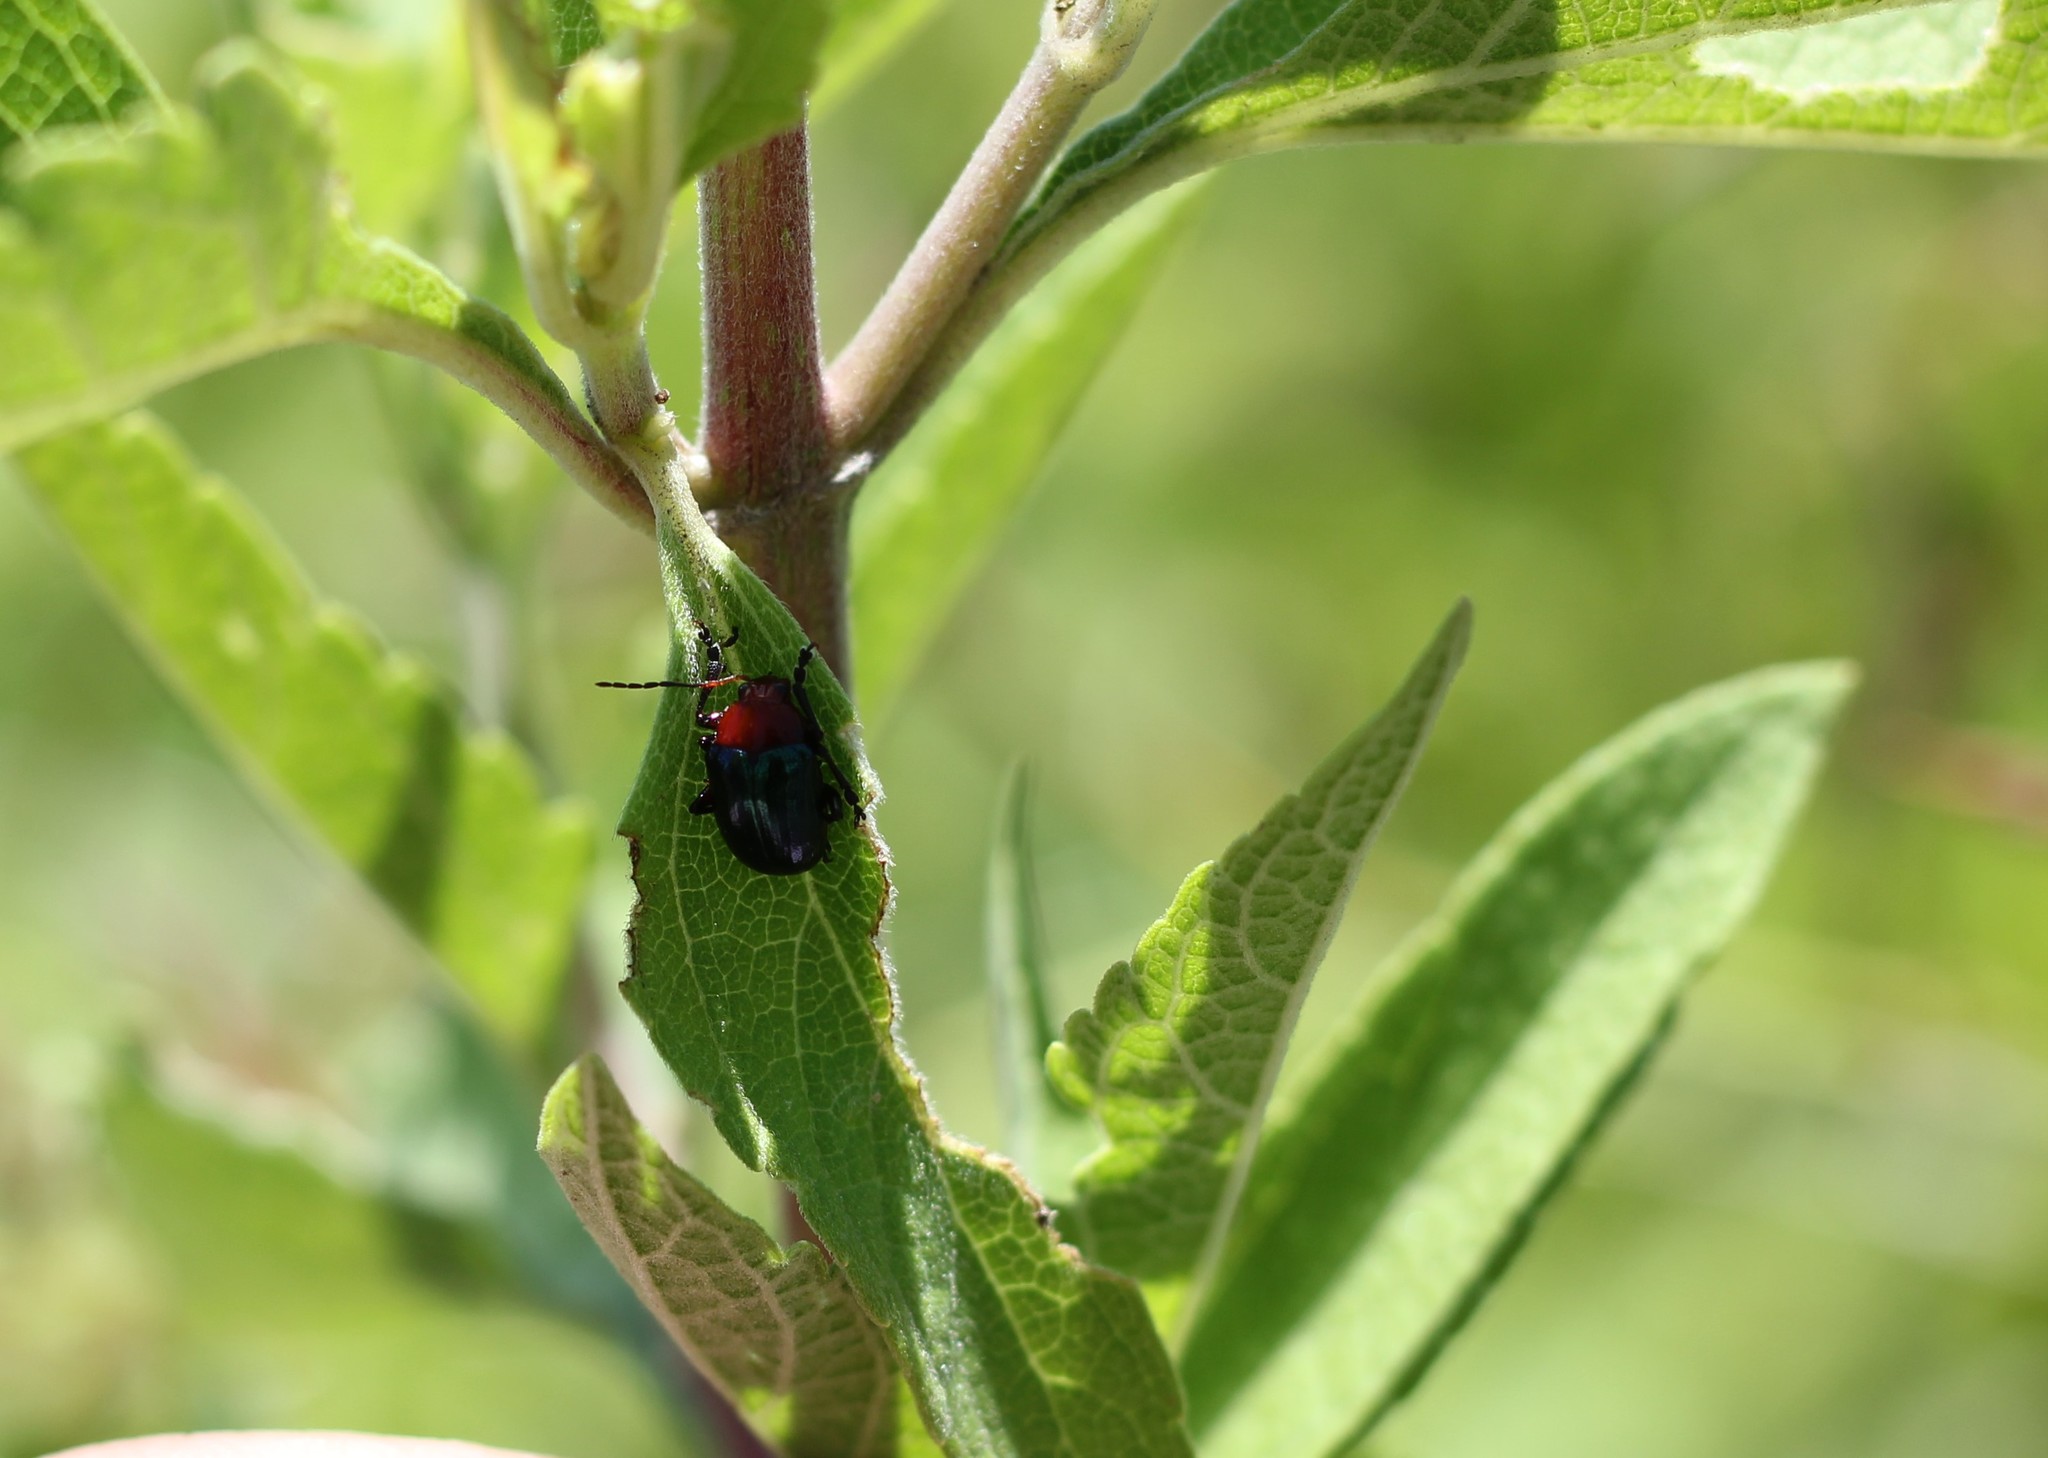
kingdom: Animalia
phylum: Arthropoda
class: Insecta
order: Coleoptera
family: Chrysomelidae
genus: Cacoscelis
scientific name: Cacoscelis
